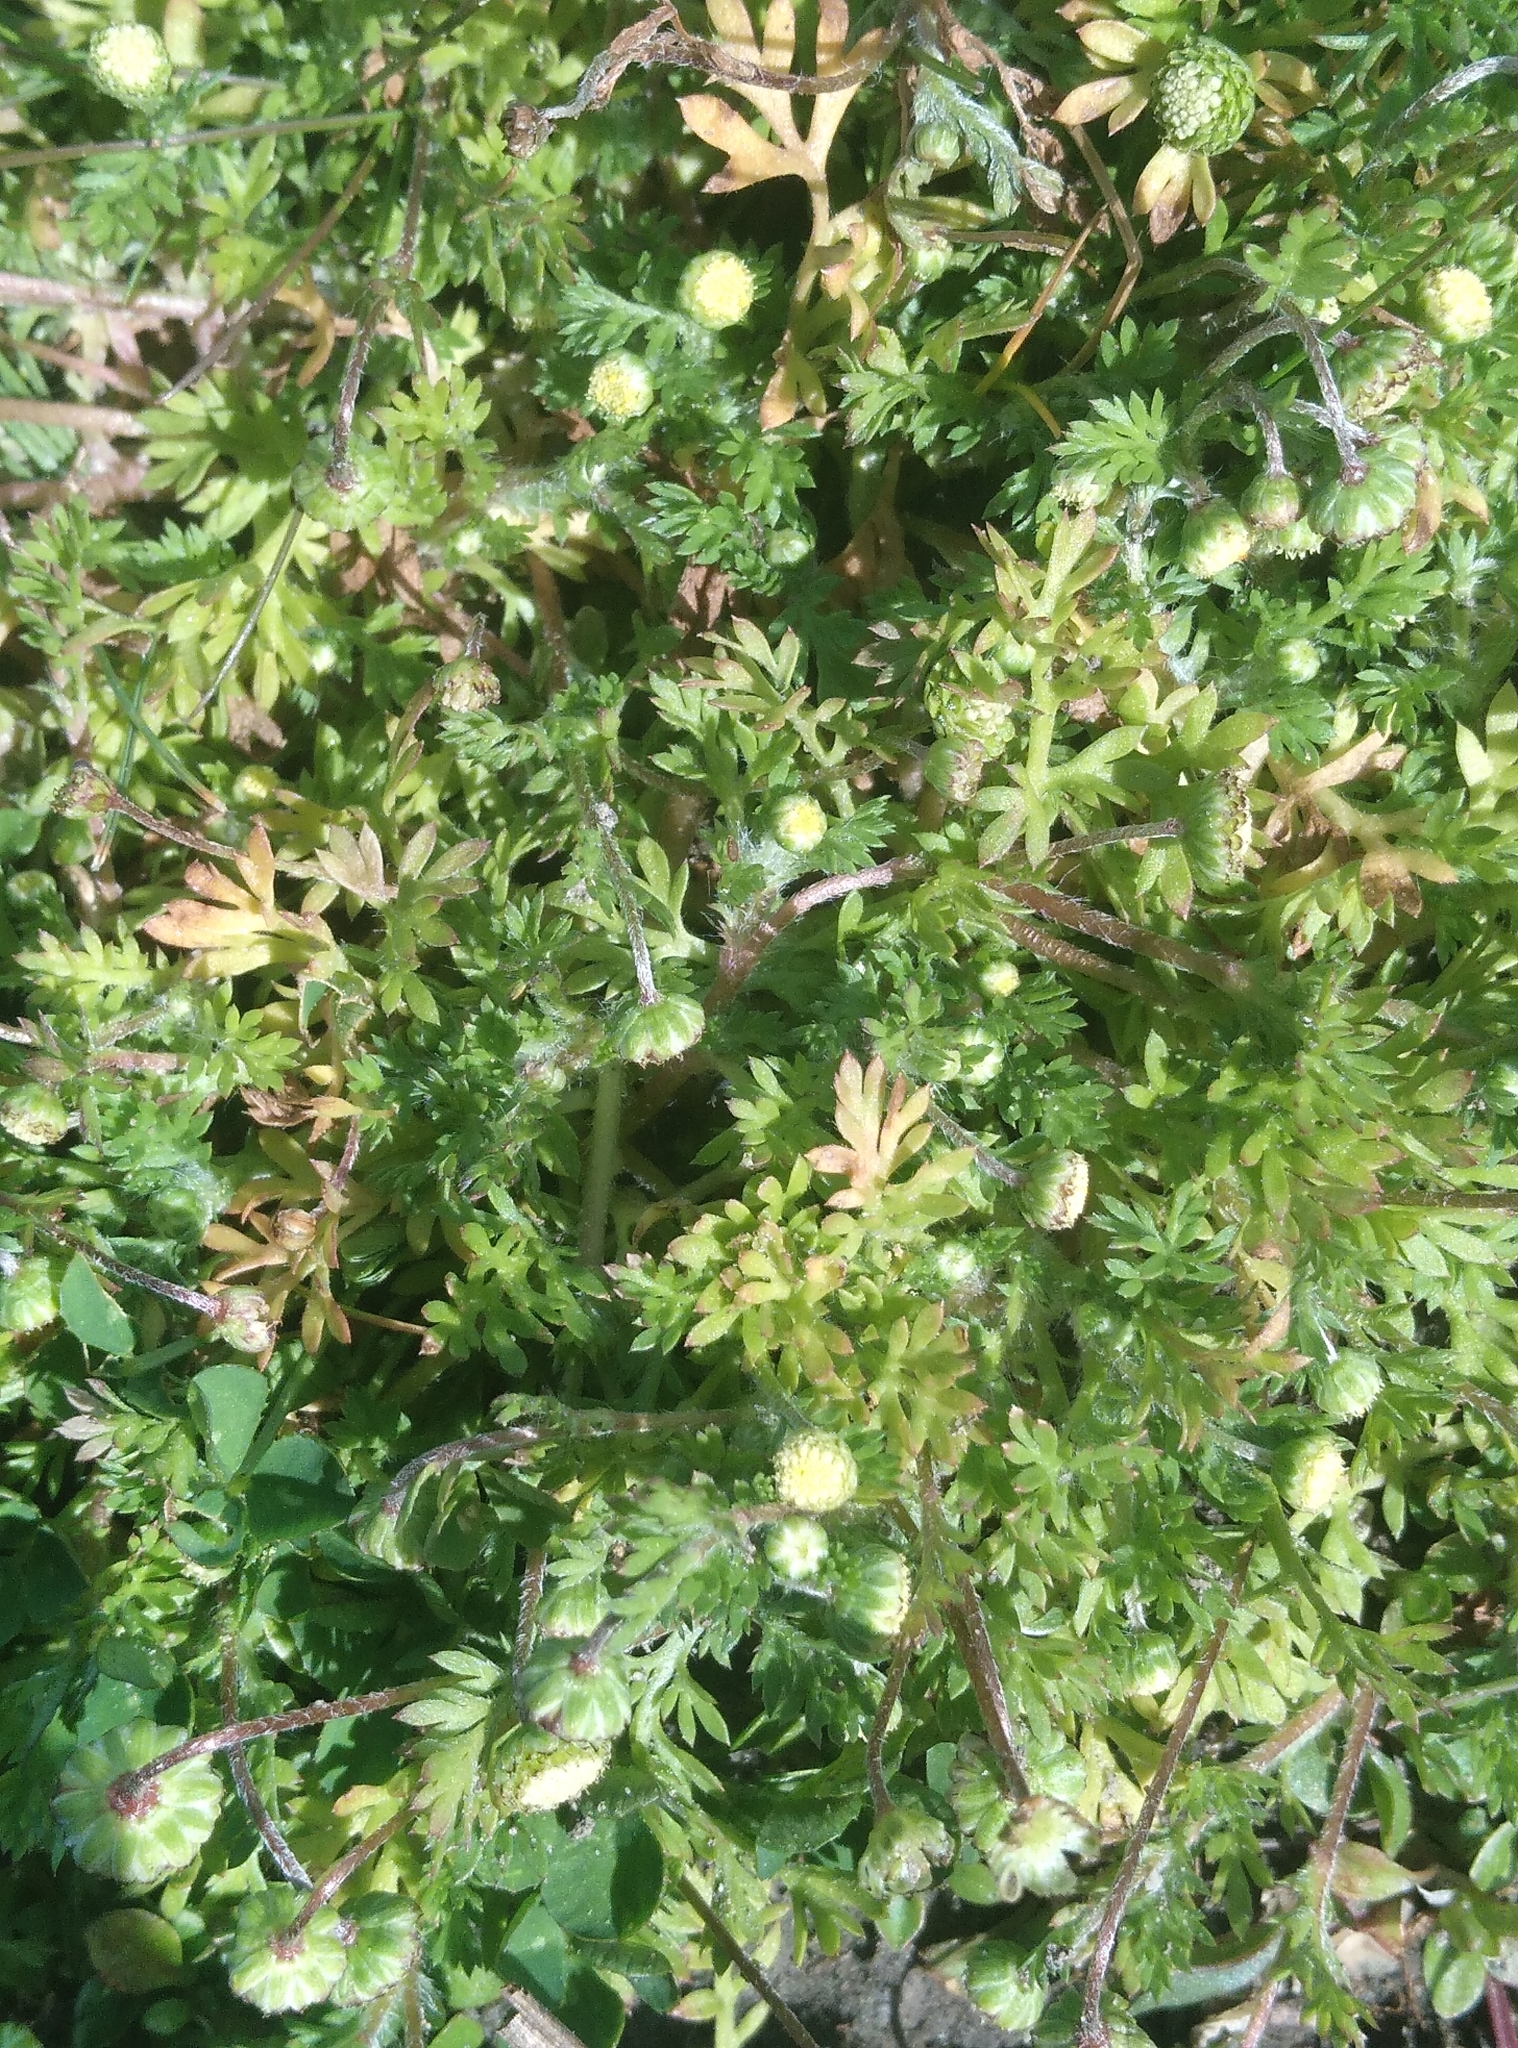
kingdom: Plantae
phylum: Tracheophyta
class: Magnoliopsida
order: Asterales
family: Asteraceae
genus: Cotula
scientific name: Cotula australis
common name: Australian waterbuttons
